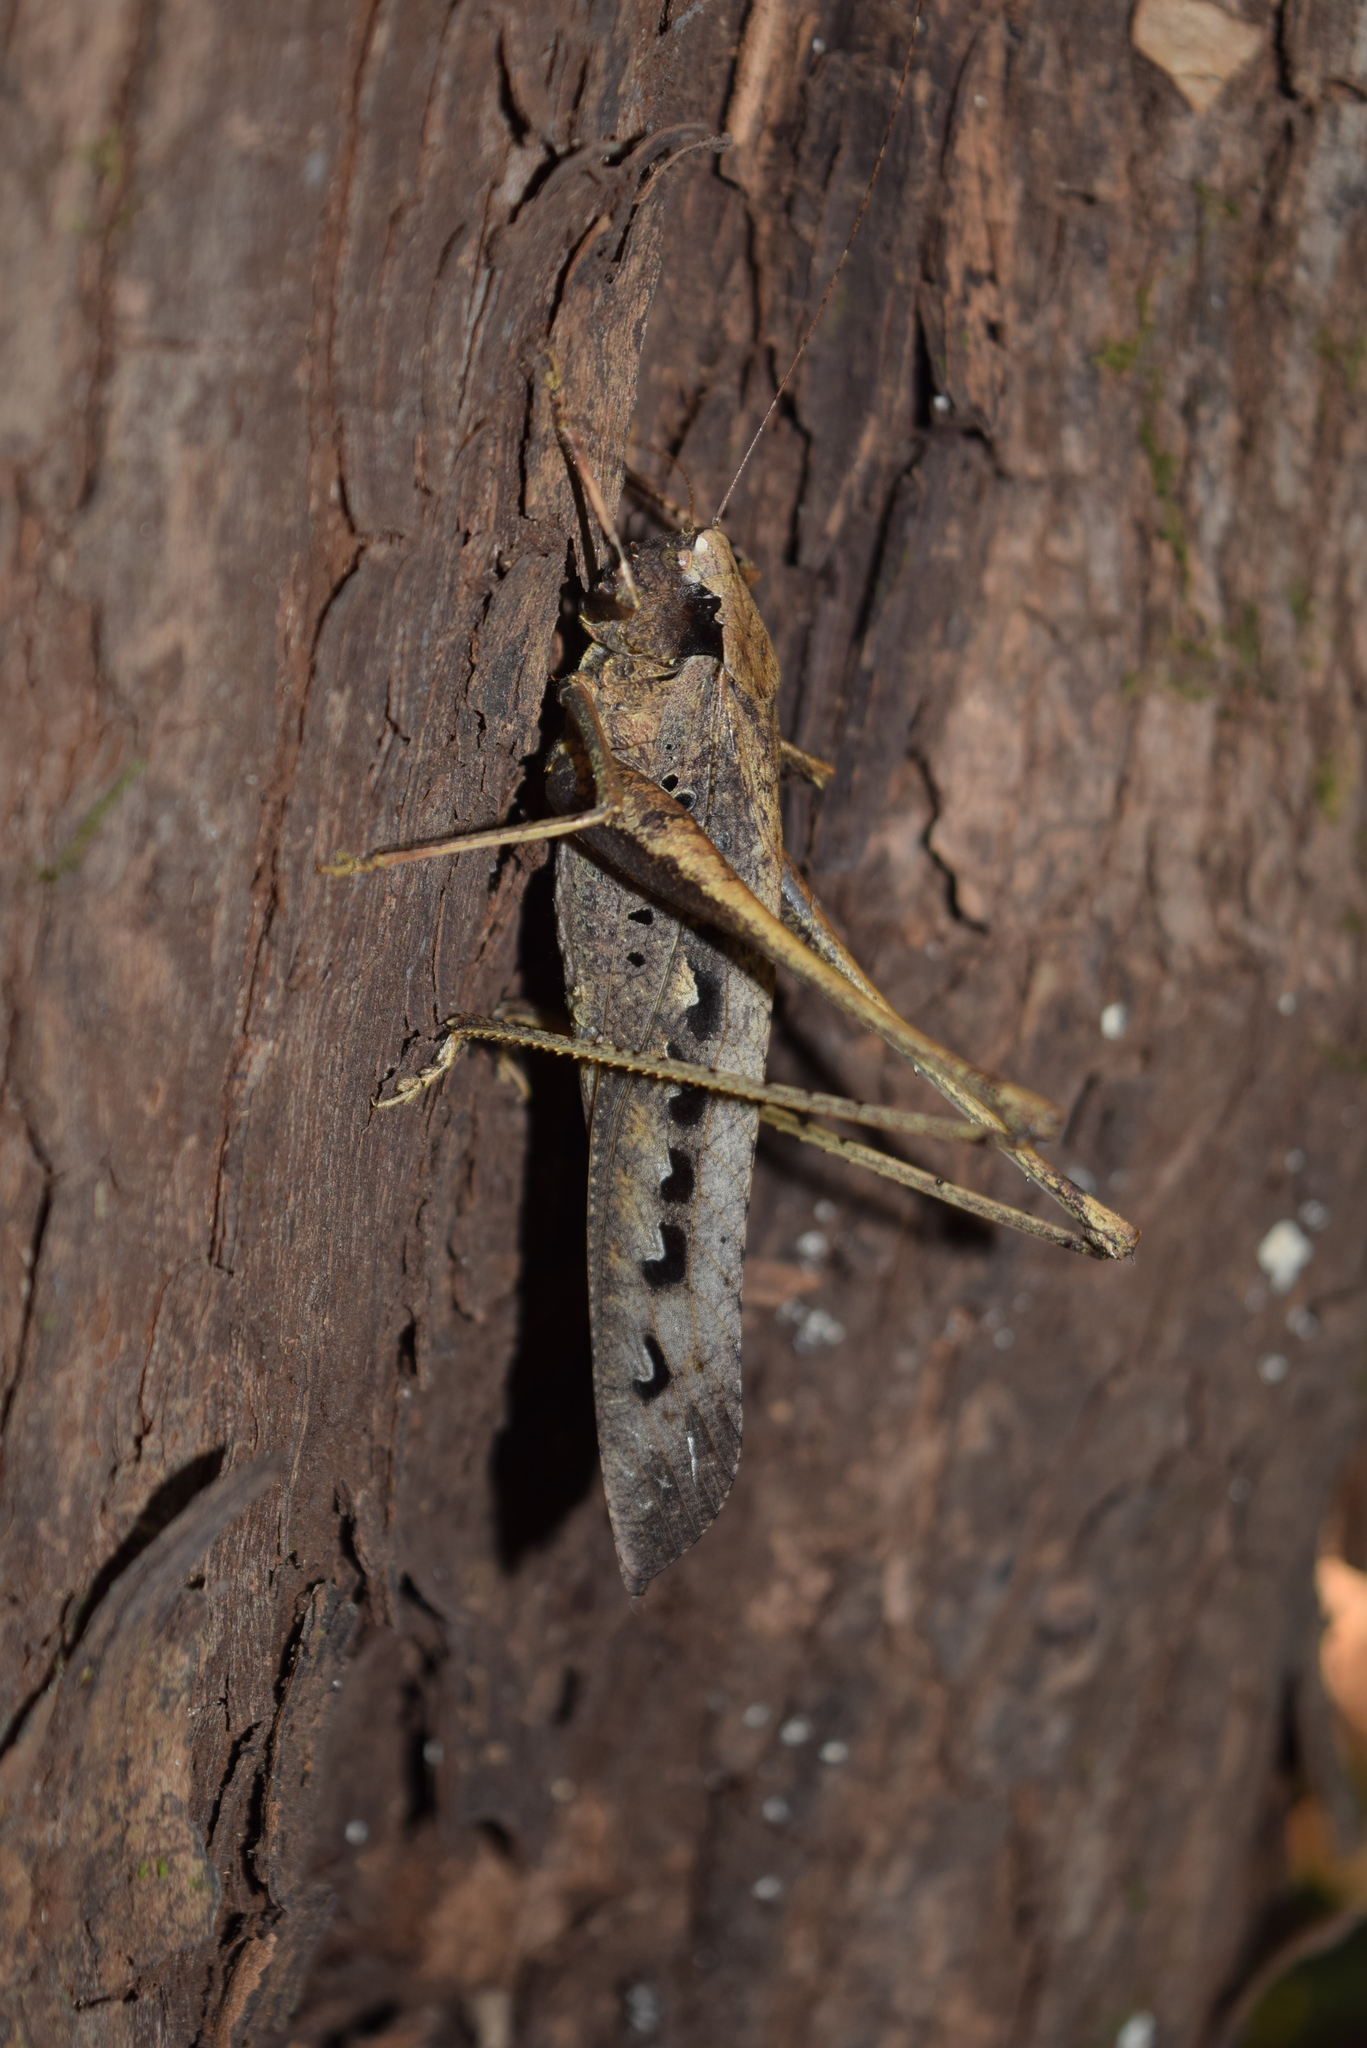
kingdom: Animalia
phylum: Arthropoda
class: Insecta
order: Orthoptera
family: Tettigoniidae
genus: Mecopoda
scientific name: Mecopoda elongata
